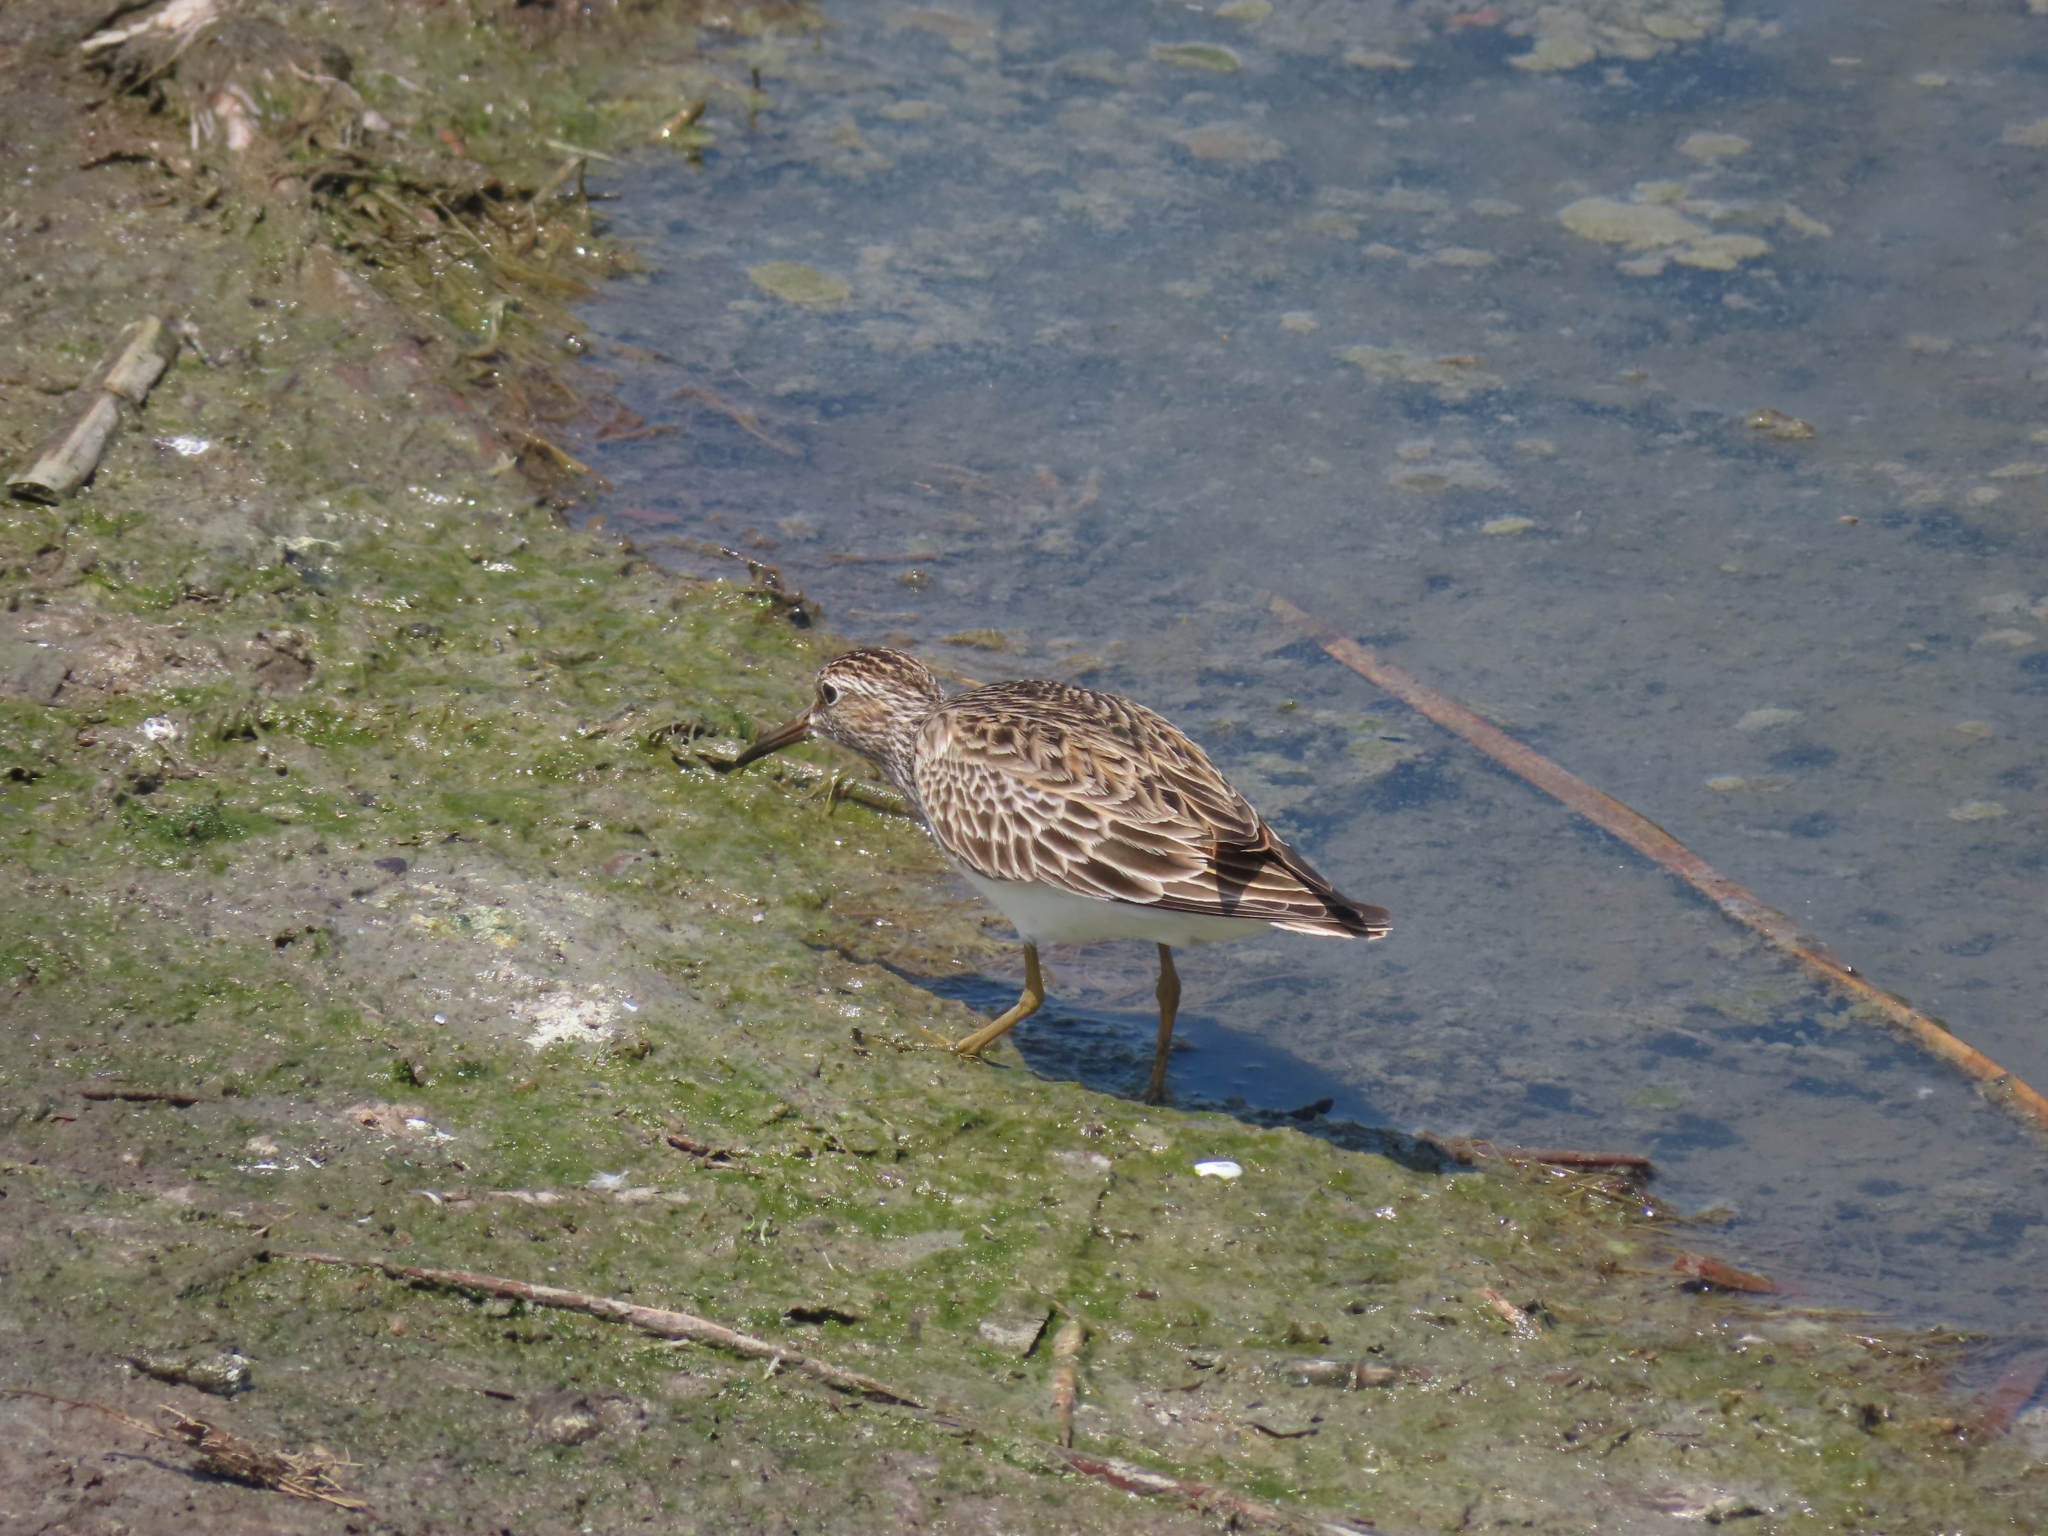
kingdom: Animalia
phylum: Chordata
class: Aves
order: Charadriiformes
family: Scolopacidae
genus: Calidris
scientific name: Calidris melanotos
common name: Pectoral sandpiper
